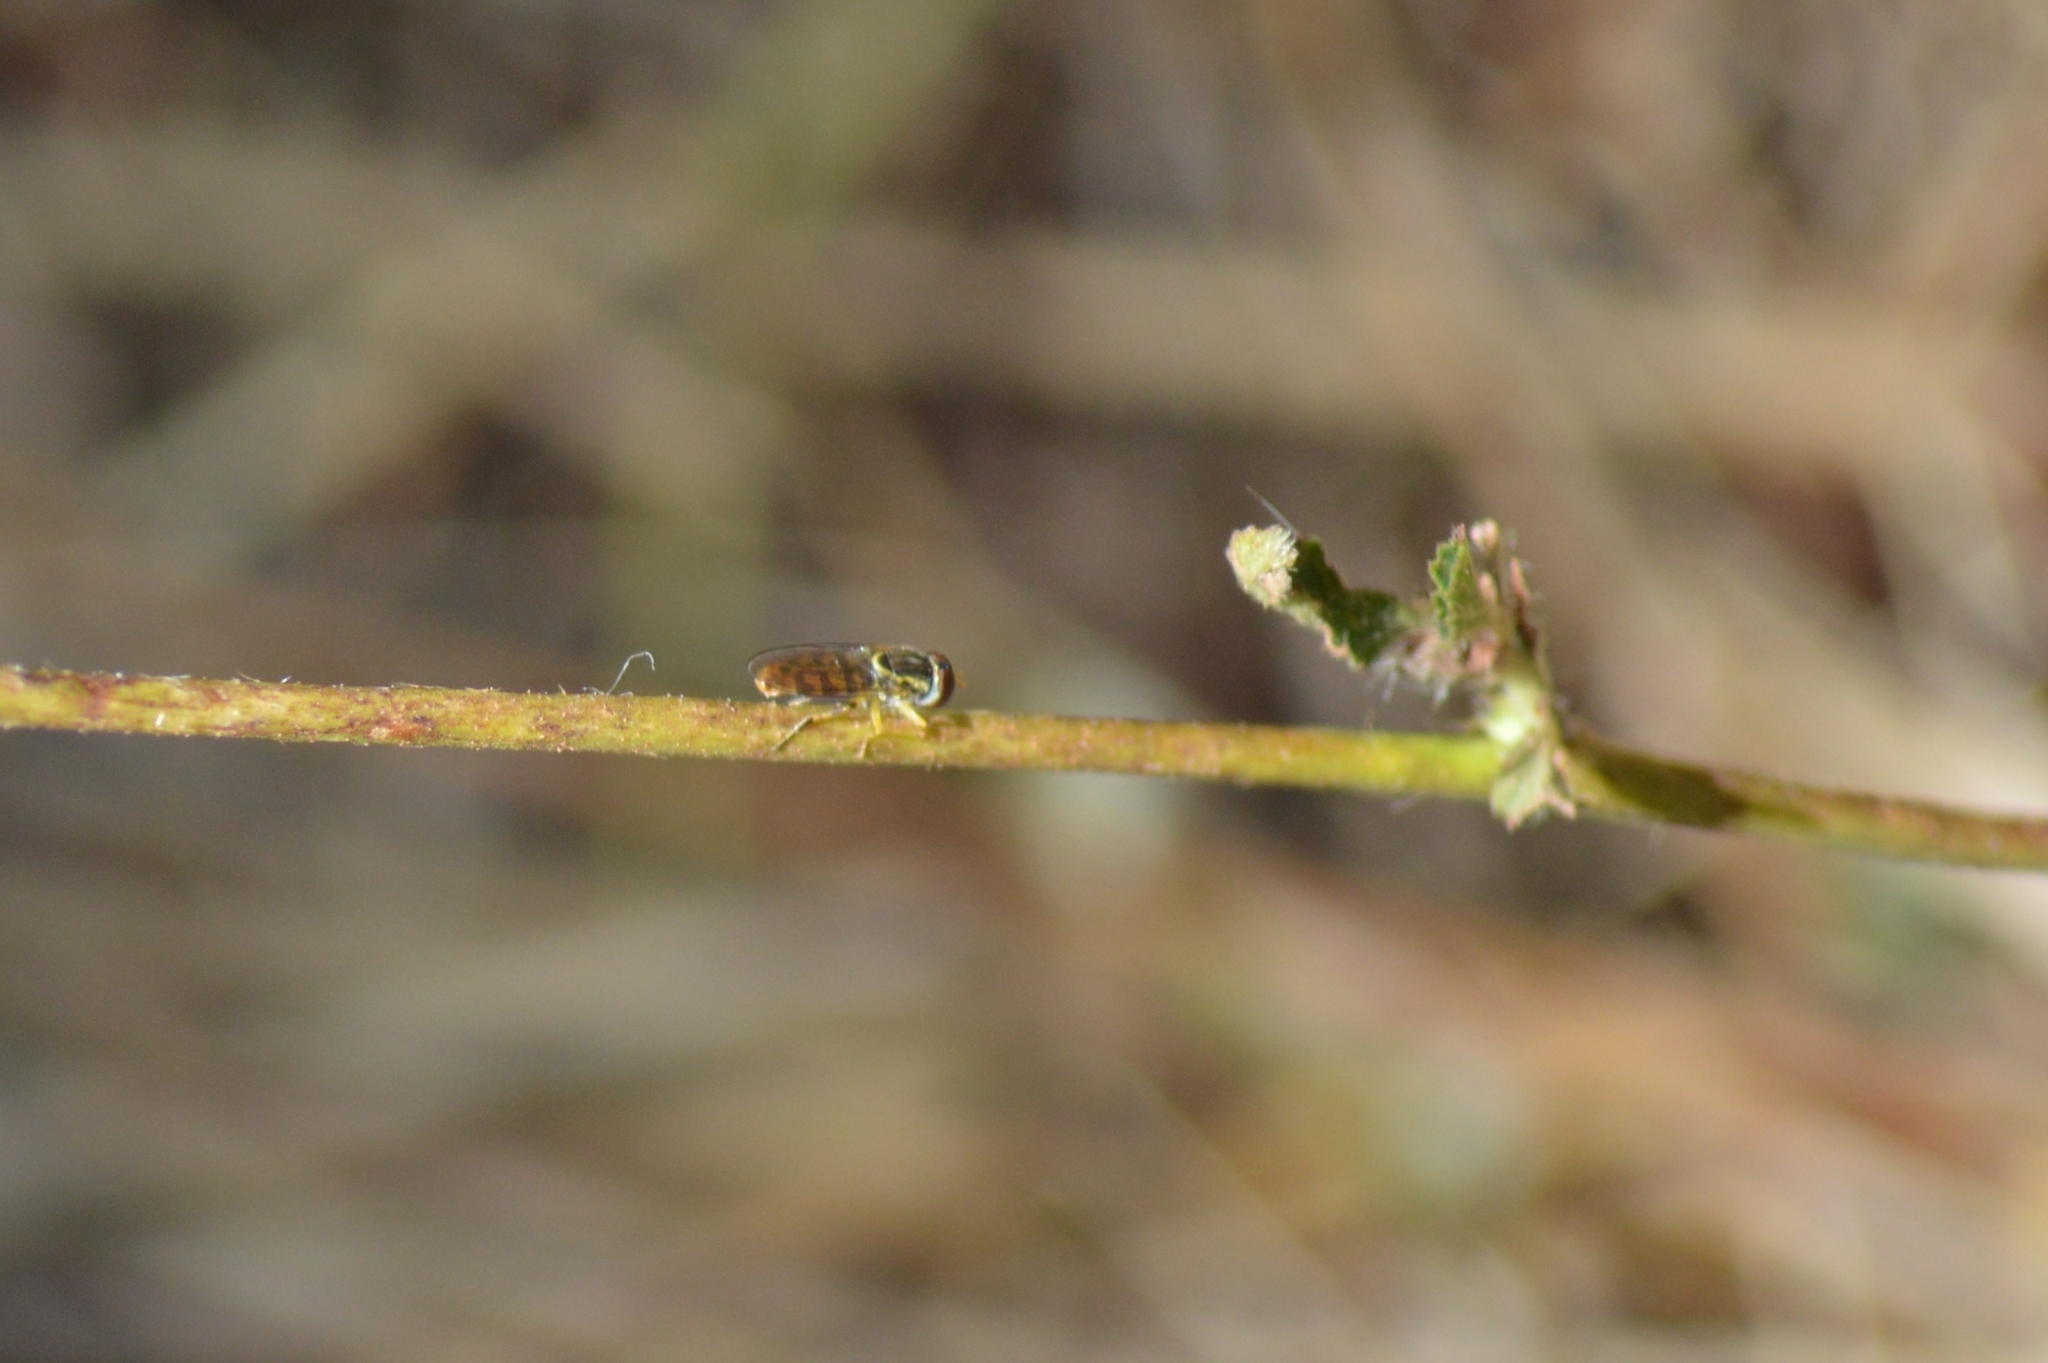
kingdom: Animalia
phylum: Arthropoda
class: Insecta
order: Diptera
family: Syrphidae
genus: Toxomerus
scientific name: Toxomerus
